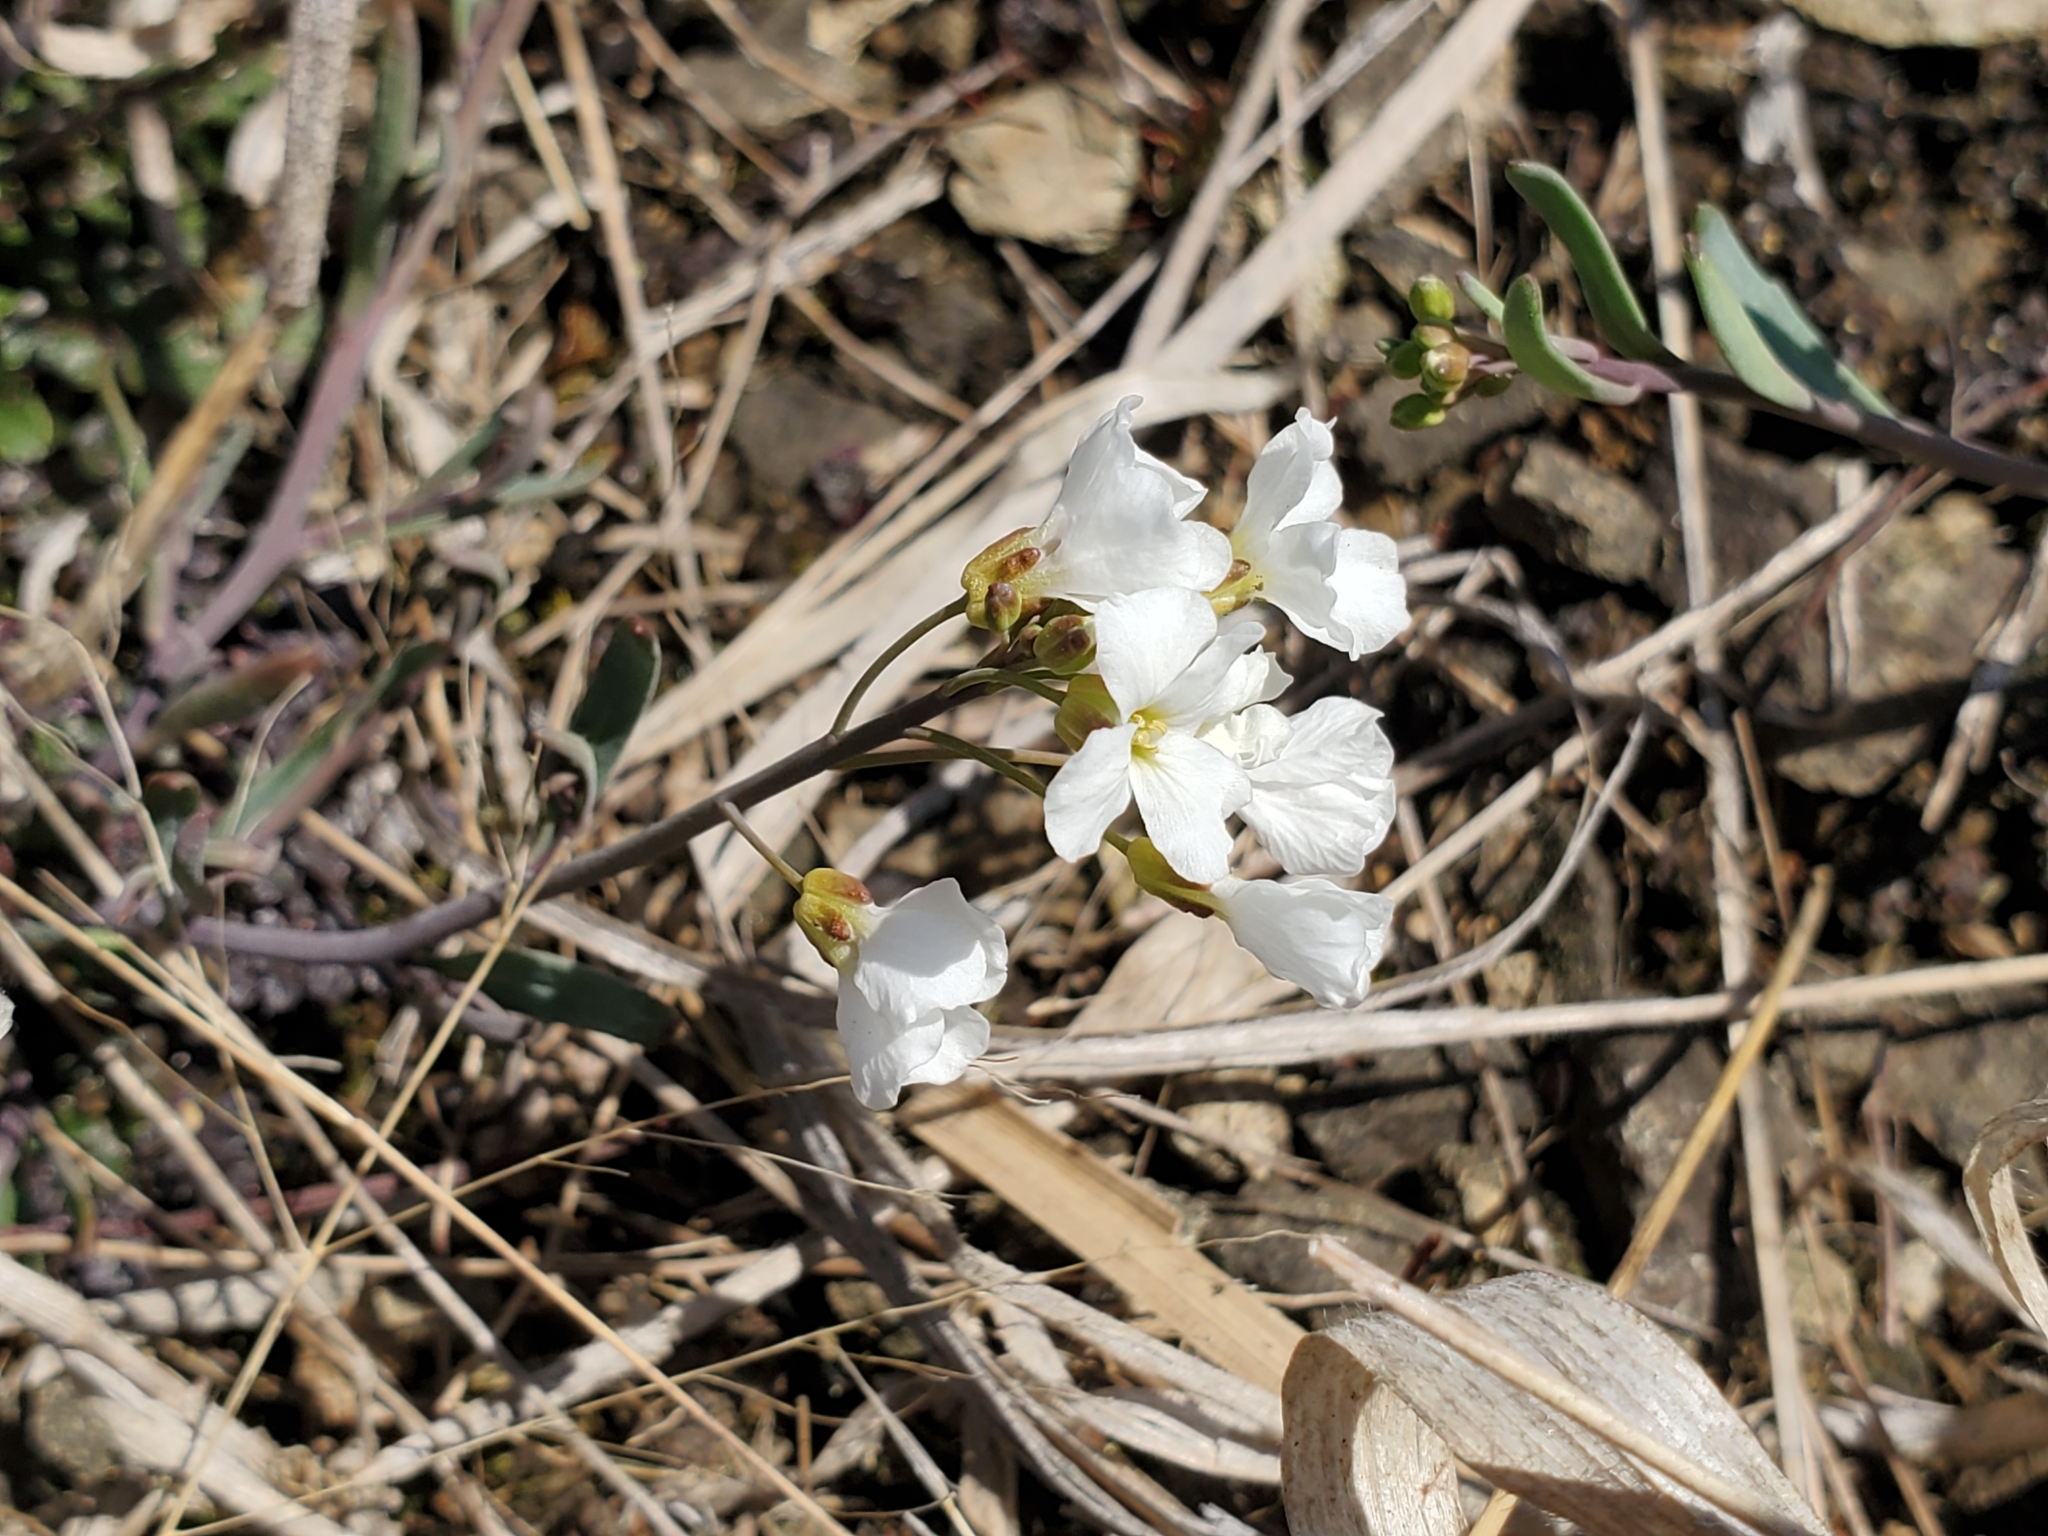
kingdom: Plantae
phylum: Tracheophyta
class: Magnoliopsida
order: Brassicales
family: Brassicaceae
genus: Arabidopsis
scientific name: Arabidopsis lyrata
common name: Lyrate rockcress
